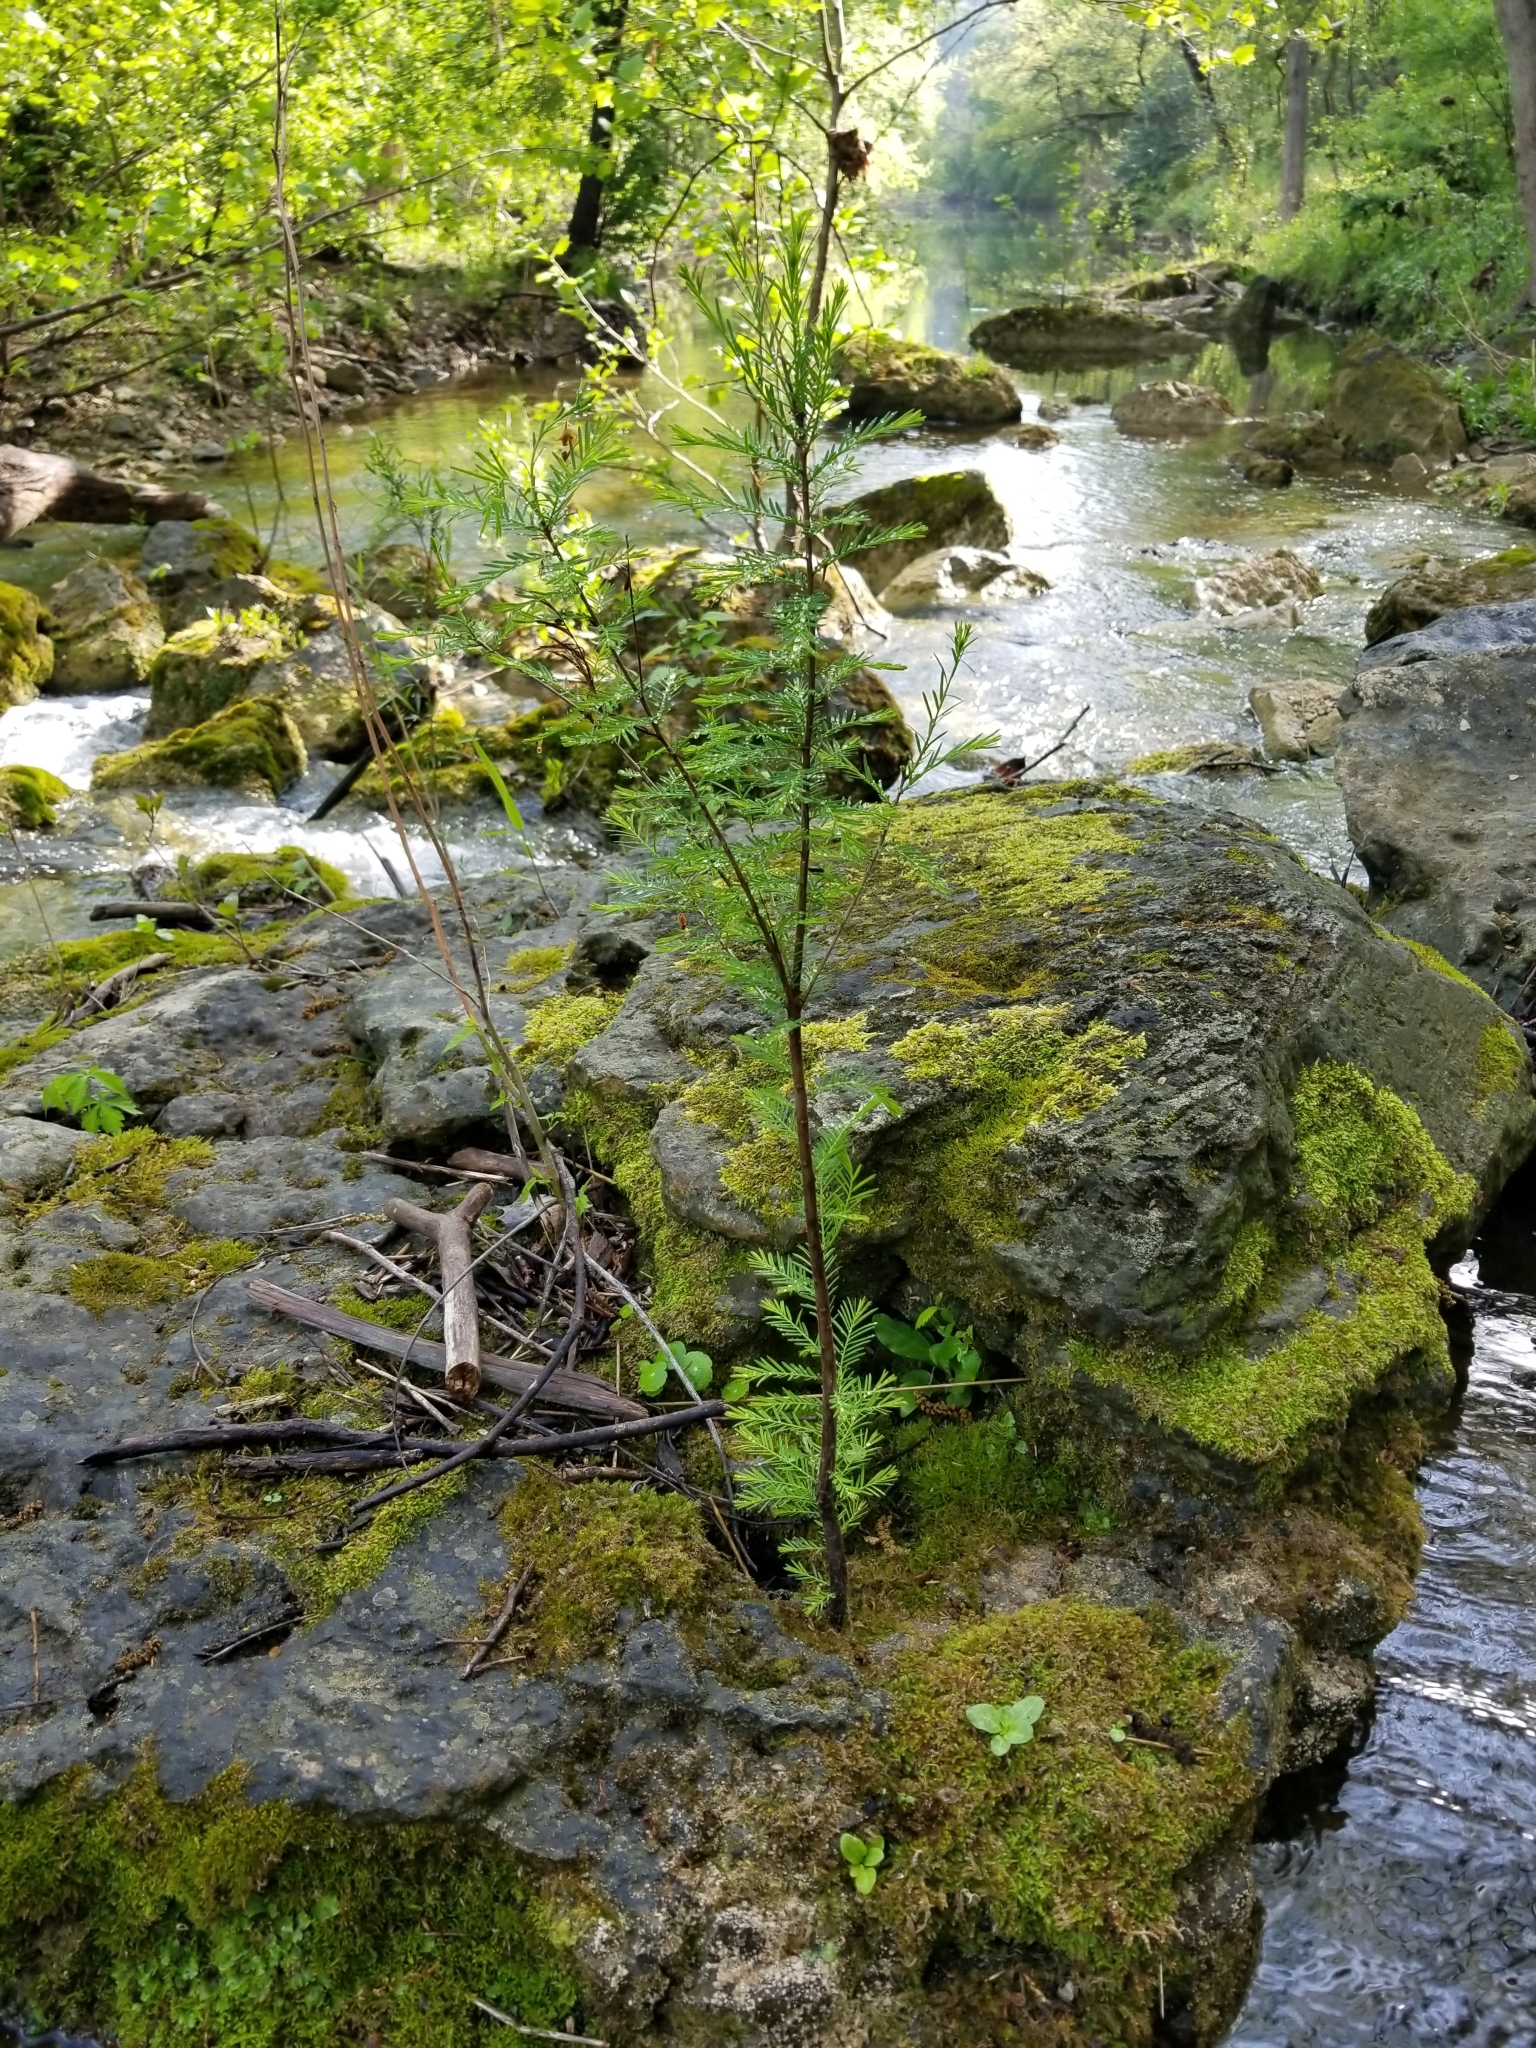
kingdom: Plantae
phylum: Tracheophyta
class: Pinopsida
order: Pinales
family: Cupressaceae
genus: Taxodium
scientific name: Taxodium distichum
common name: Bald cypress
